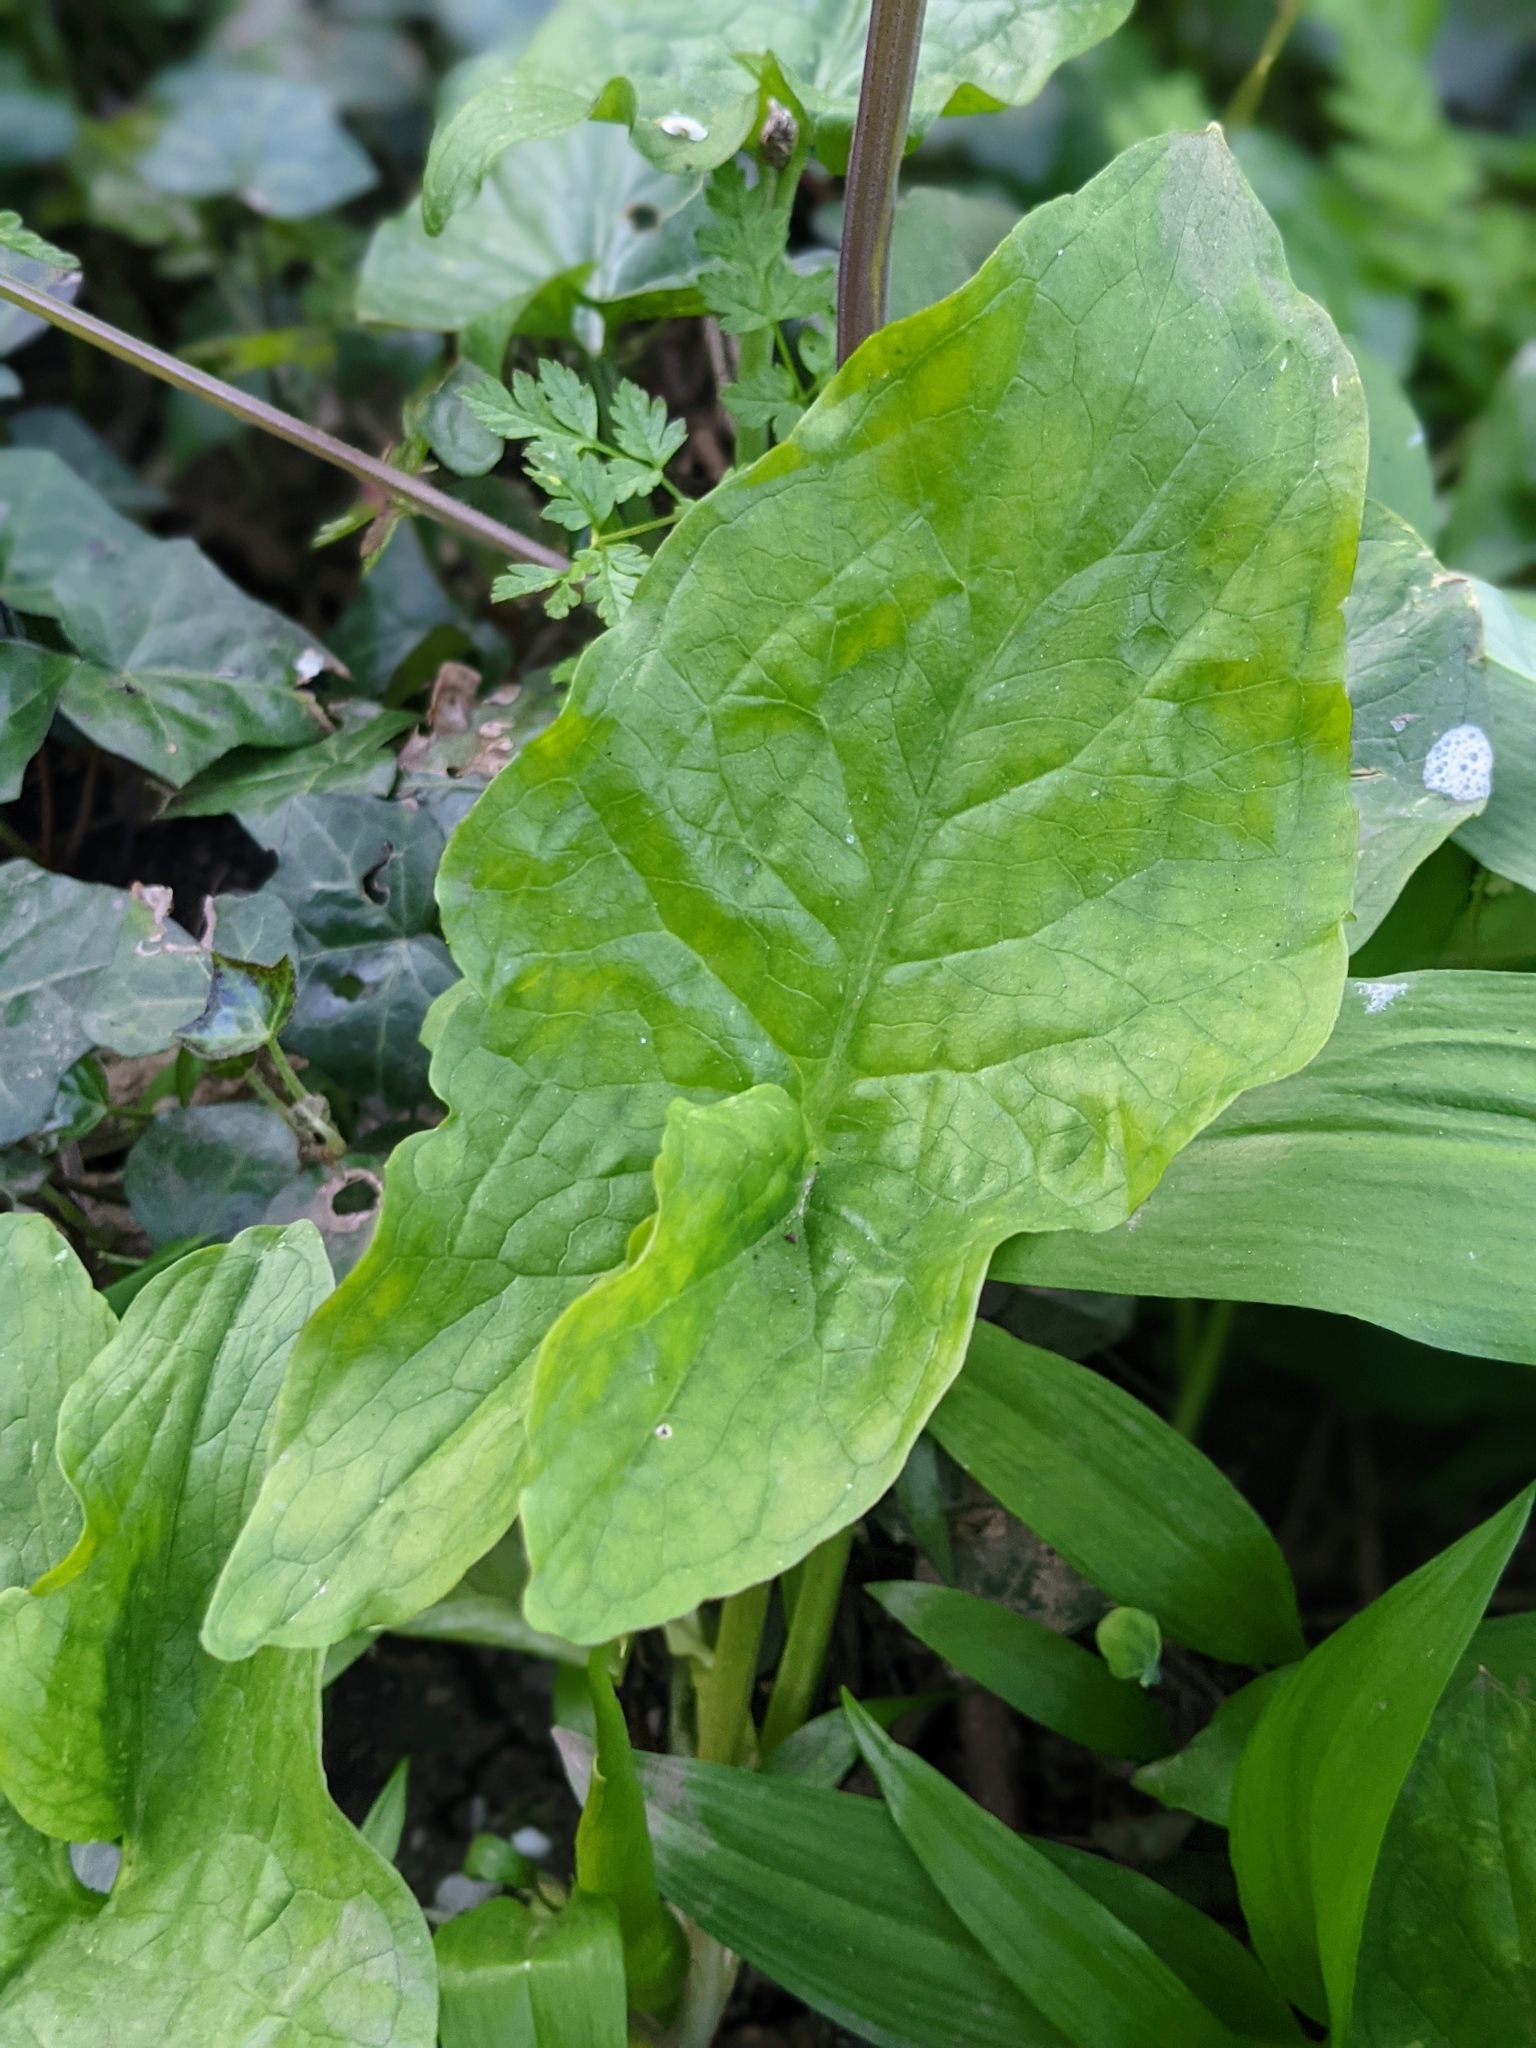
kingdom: Plantae
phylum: Tracheophyta
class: Liliopsida
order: Alismatales
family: Araceae
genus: Arum
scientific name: Arum maculatum
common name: Lords-and-ladies
